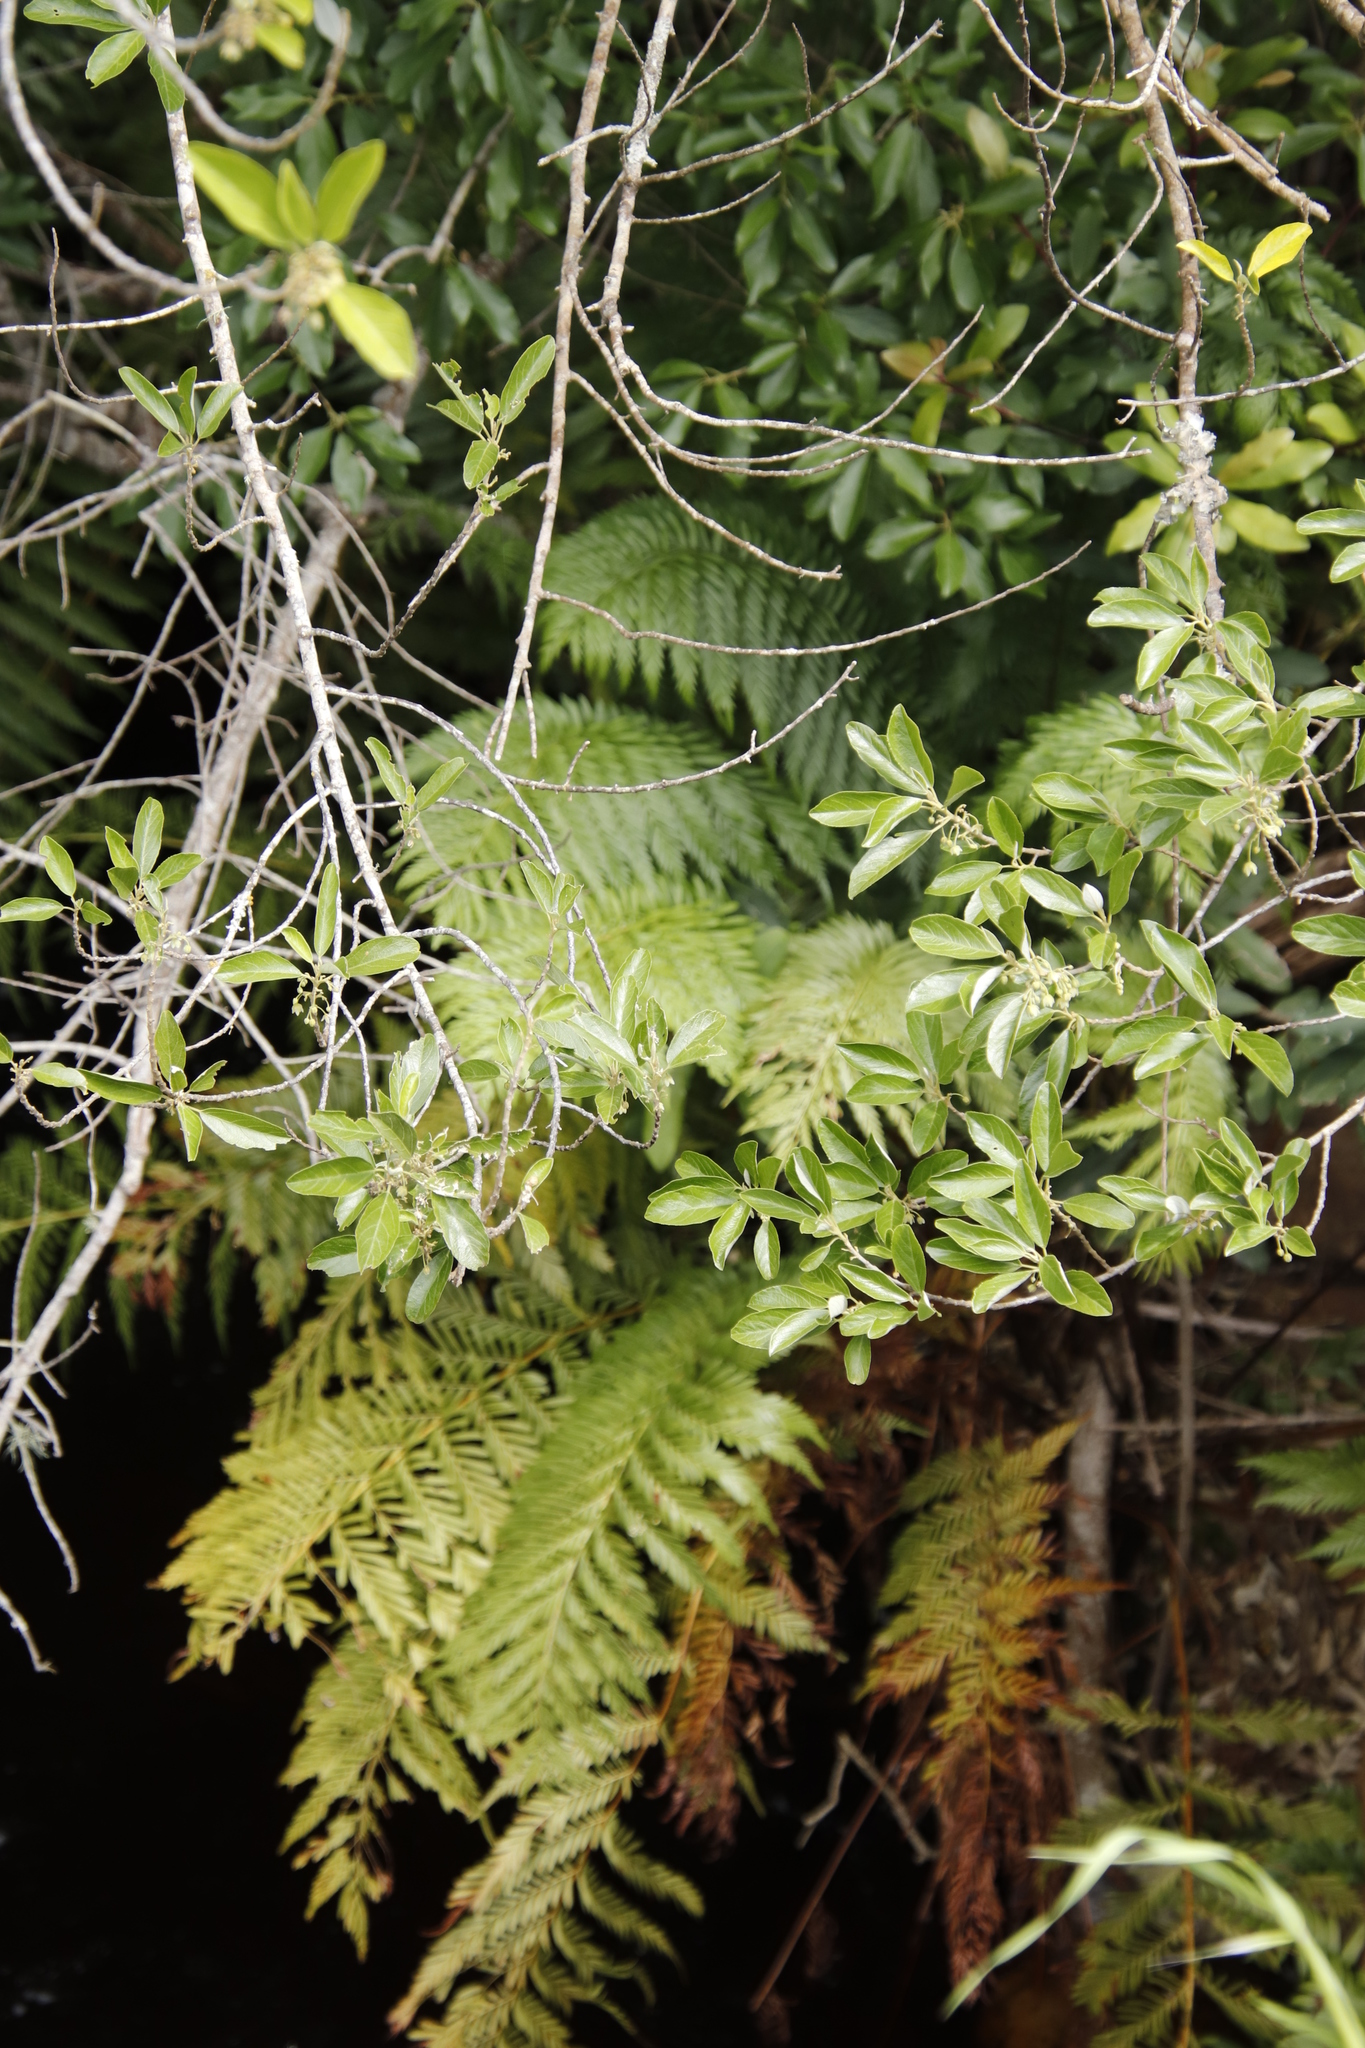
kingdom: Plantae
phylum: Tracheophyta
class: Polypodiopsida
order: Osmundales
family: Osmundaceae
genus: Todea
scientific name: Todea barbara
